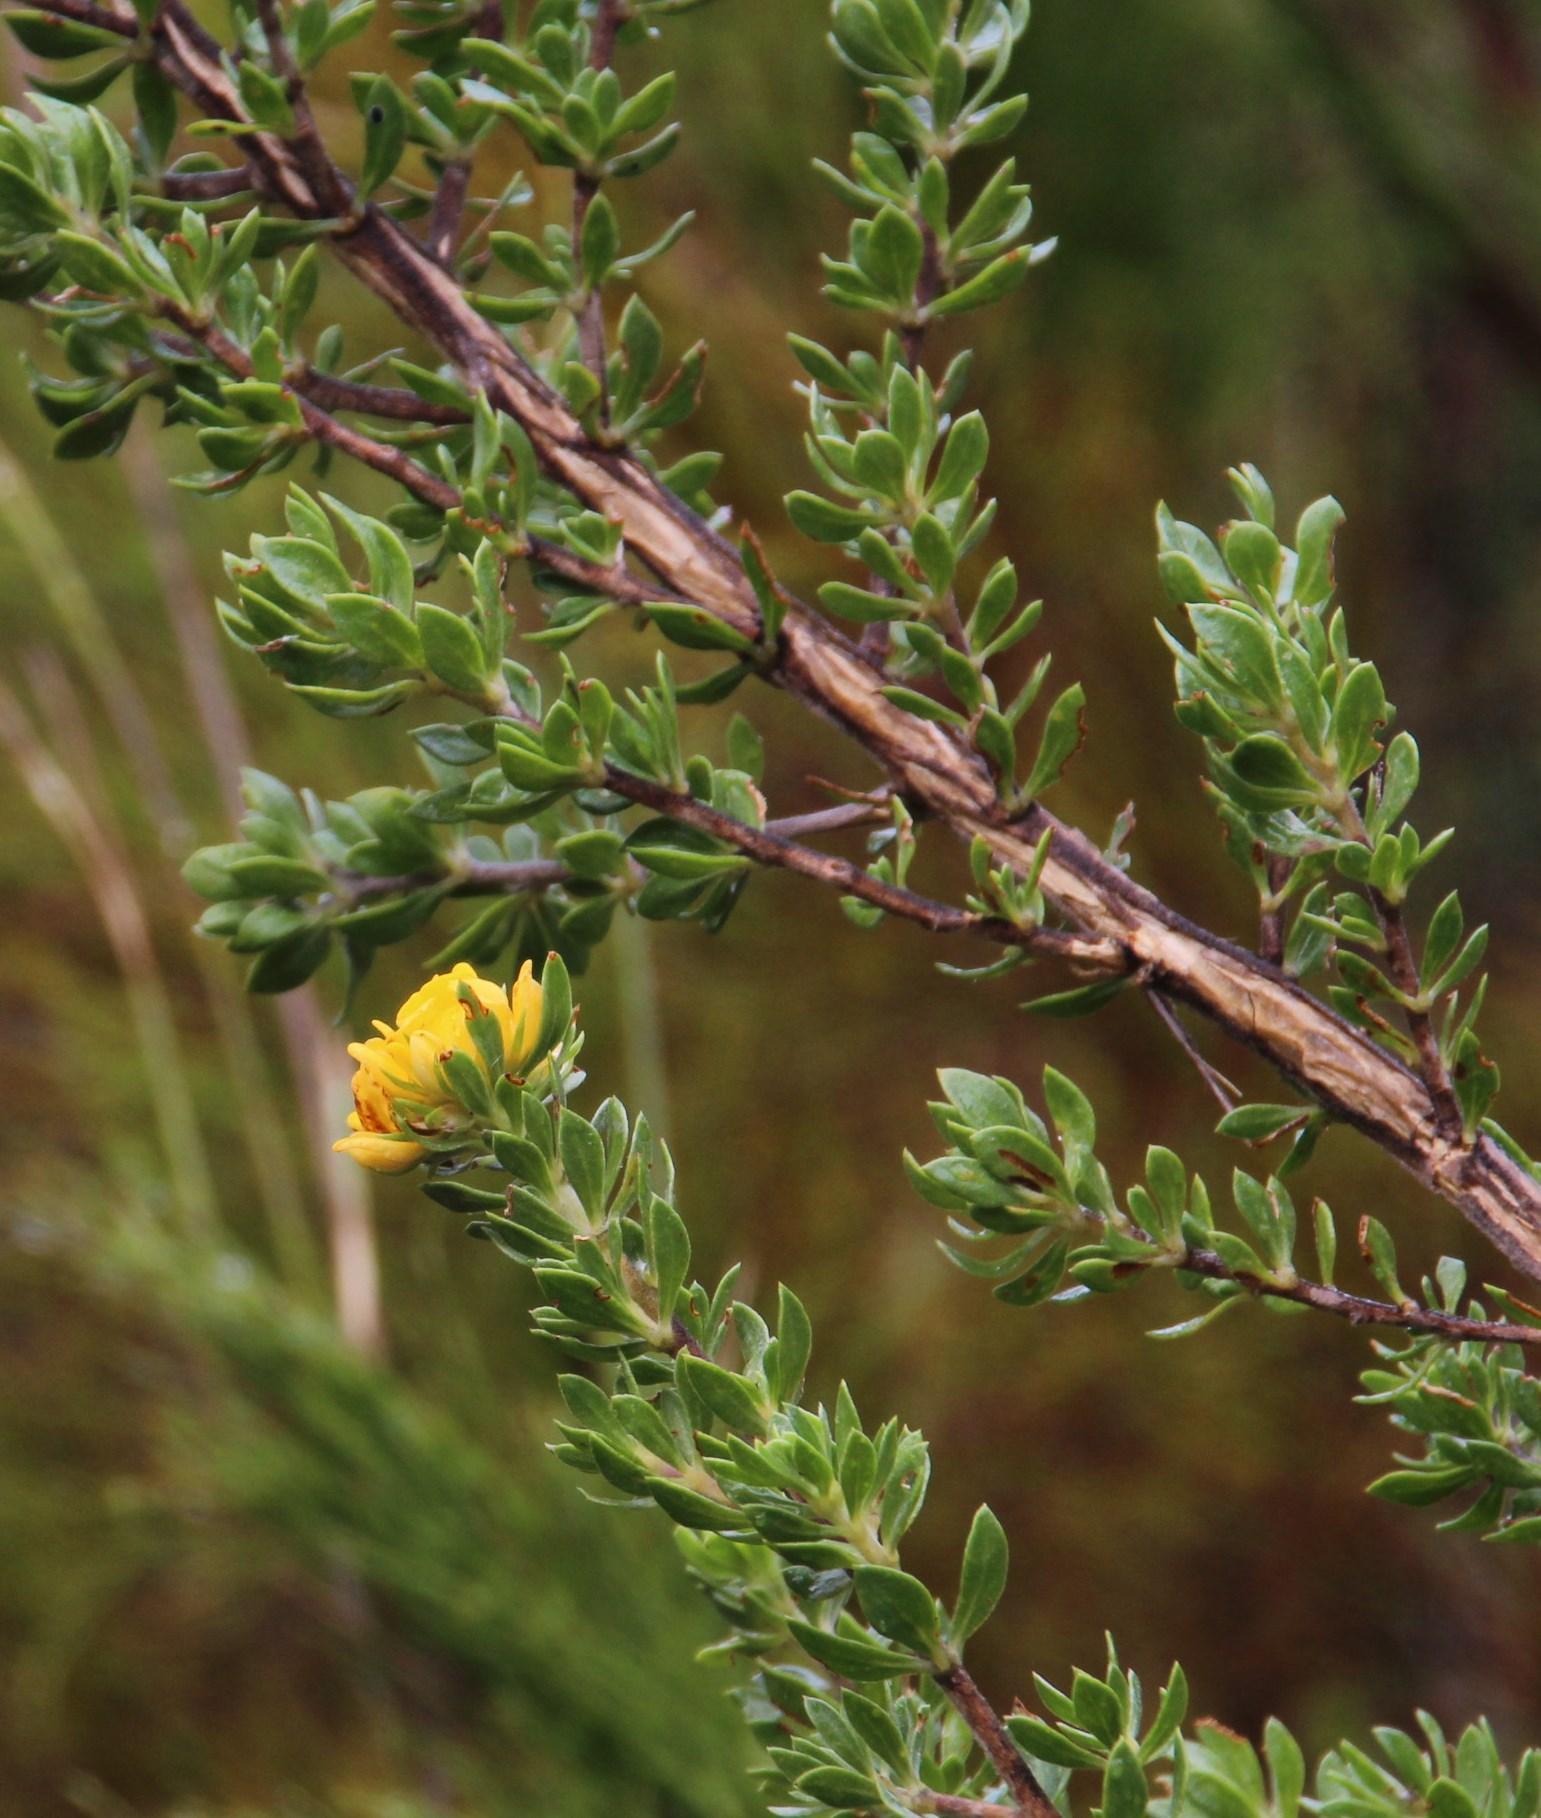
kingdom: Plantae
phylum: Tracheophyta
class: Magnoliopsida
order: Fabales
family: Fabaceae
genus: Aspalathus
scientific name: Aspalathus securifolia
